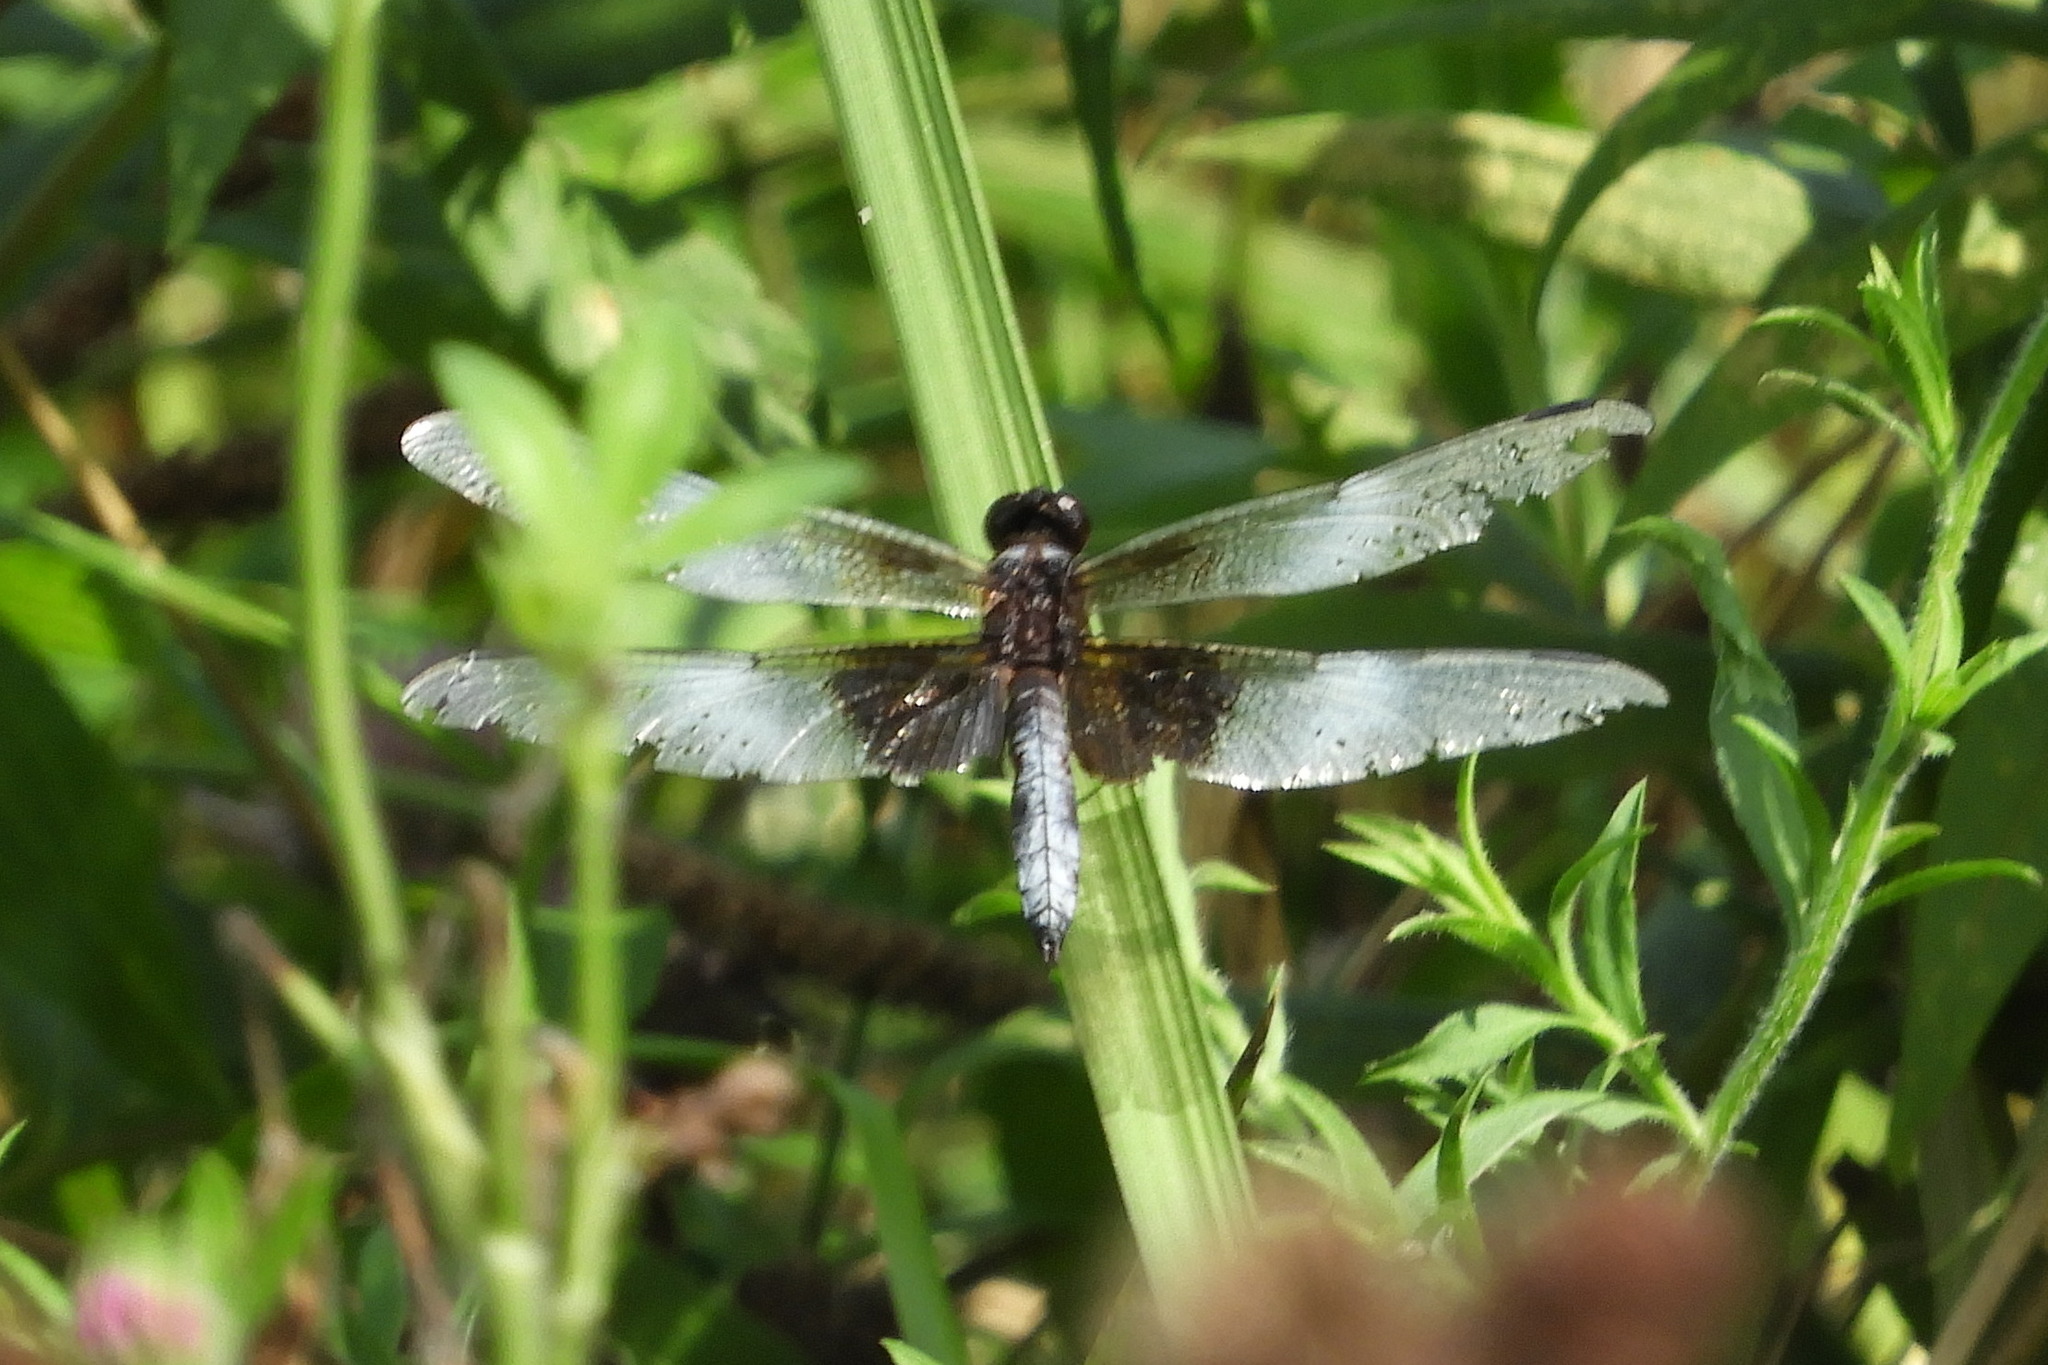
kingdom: Animalia
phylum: Arthropoda
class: Insecta
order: Odonata
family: Libellulidae
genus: Libellula
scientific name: Libellula luctuosa
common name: Widow skimmer
